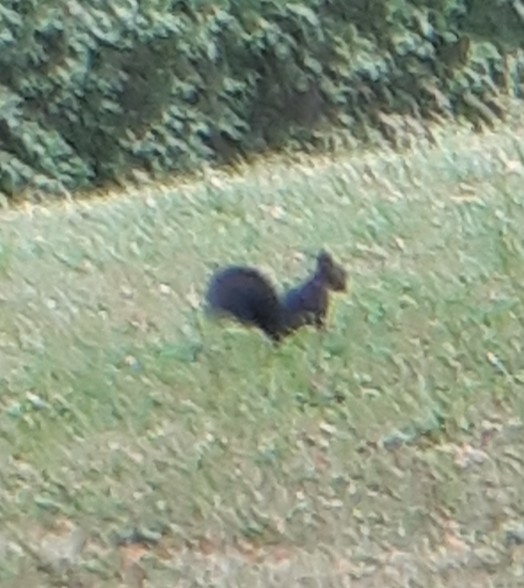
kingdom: Animalia
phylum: Chordata
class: Mammalia
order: Rodentia
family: Sciuridae
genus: Sciurus
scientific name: Sciurus vulgaris
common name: Eurasian red squirrel
